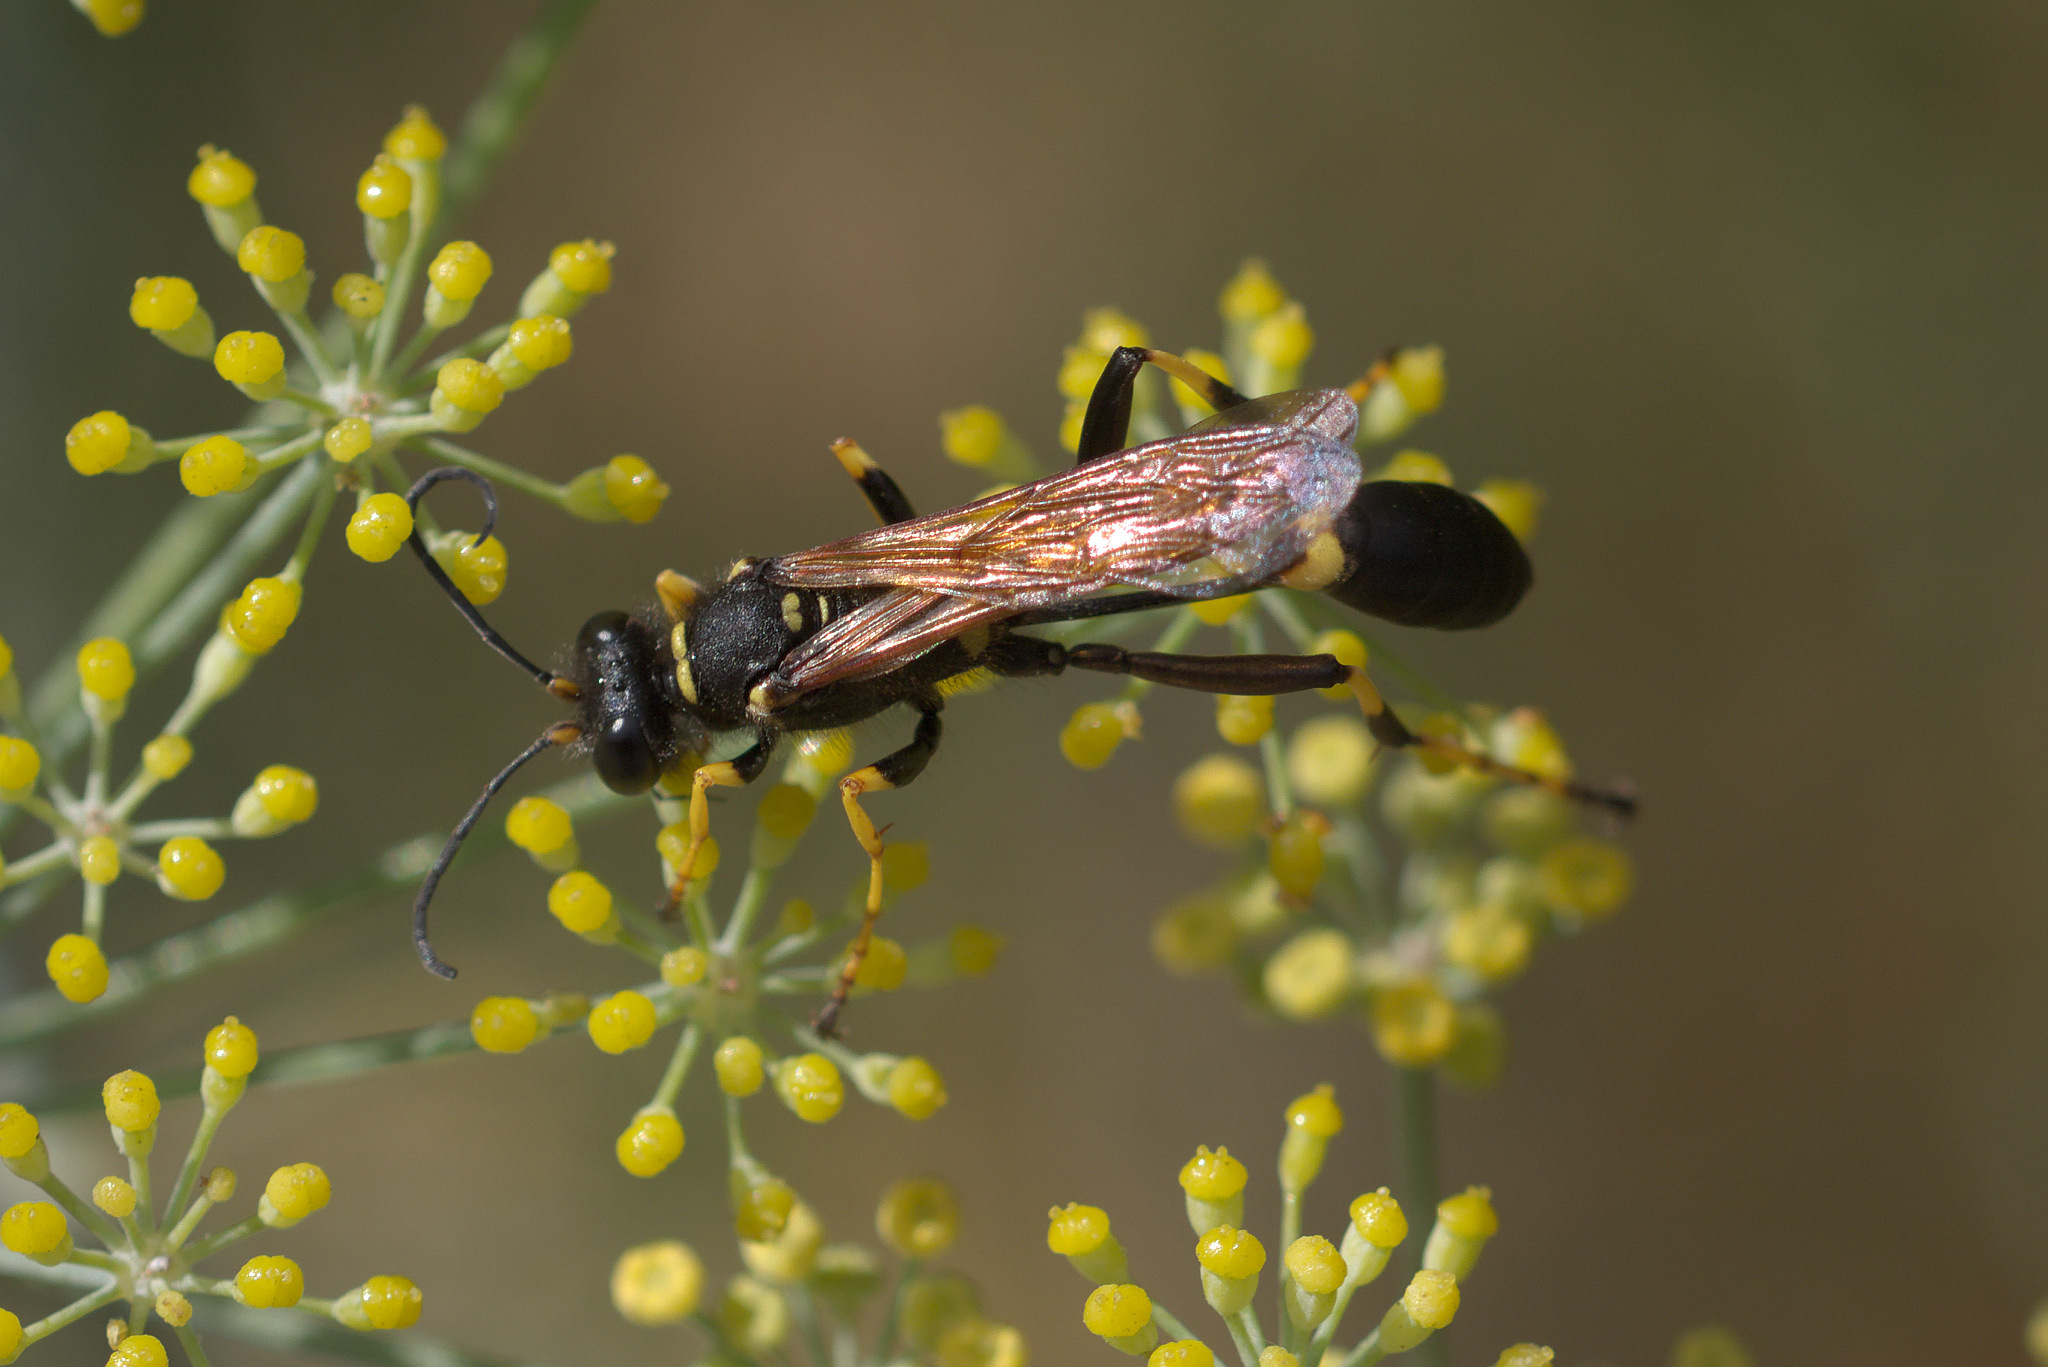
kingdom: Animalia
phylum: Arthropoda
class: Insecta
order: Hymenoptera
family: Sphecidae
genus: Sceliphron
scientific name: Sceliphron caementarium
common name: Mud dauber
